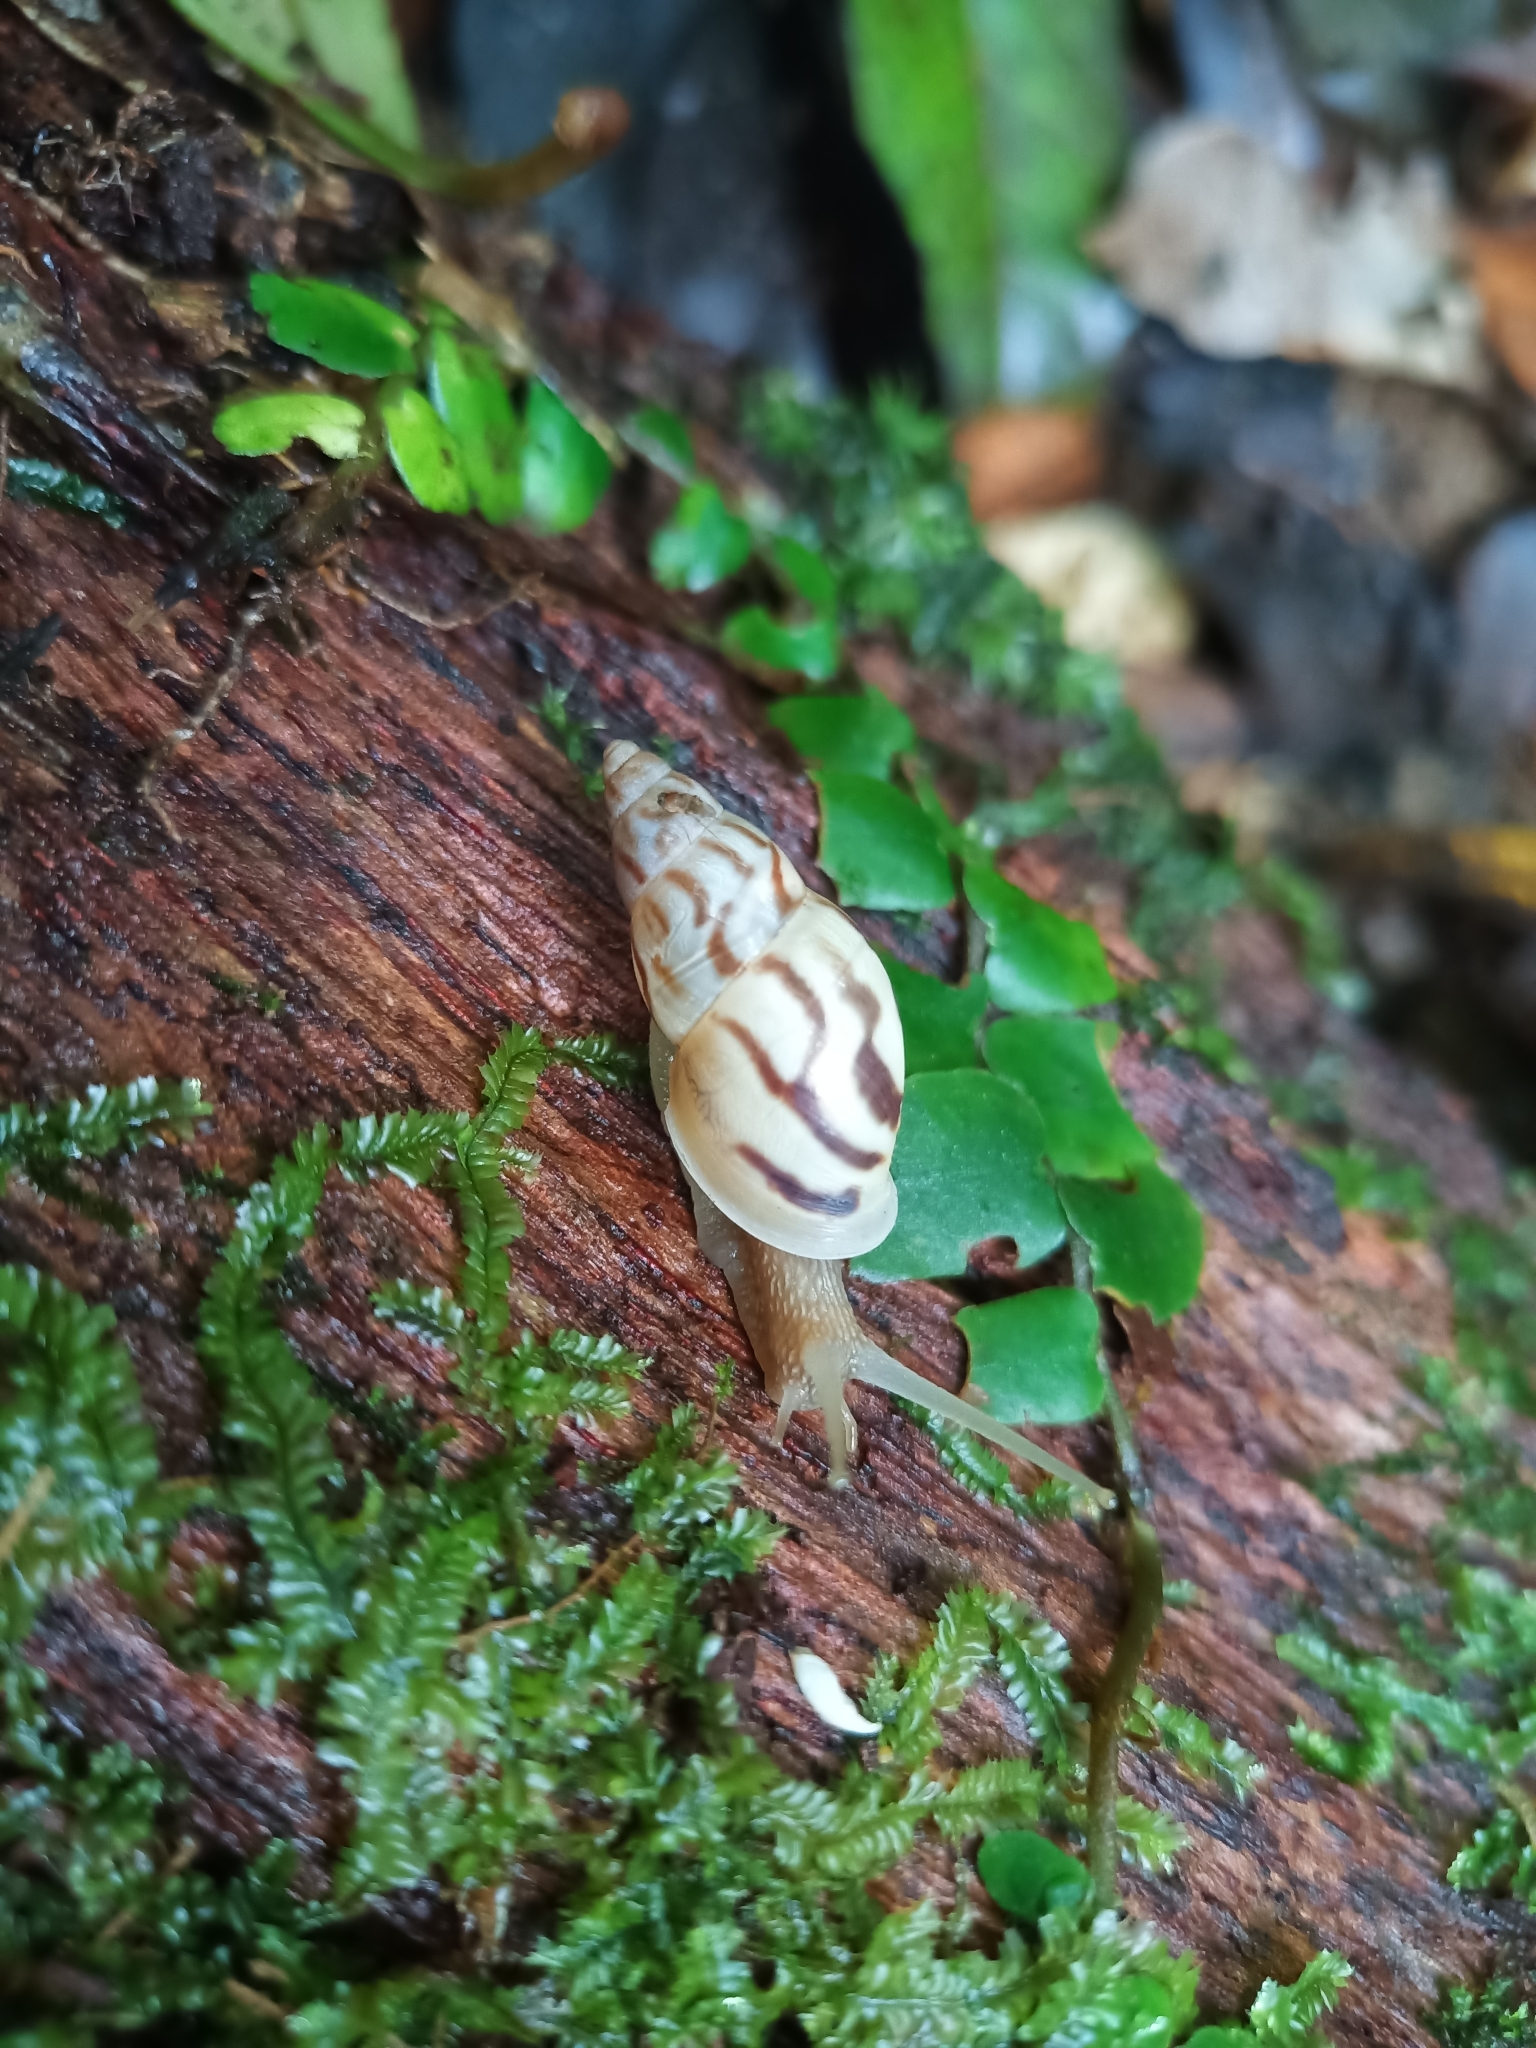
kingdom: Animalia
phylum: Mollusca
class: Gastropoda
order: Stylommatophora
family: Bulimulidae
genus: Drymaeus
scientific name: Drymaeus
